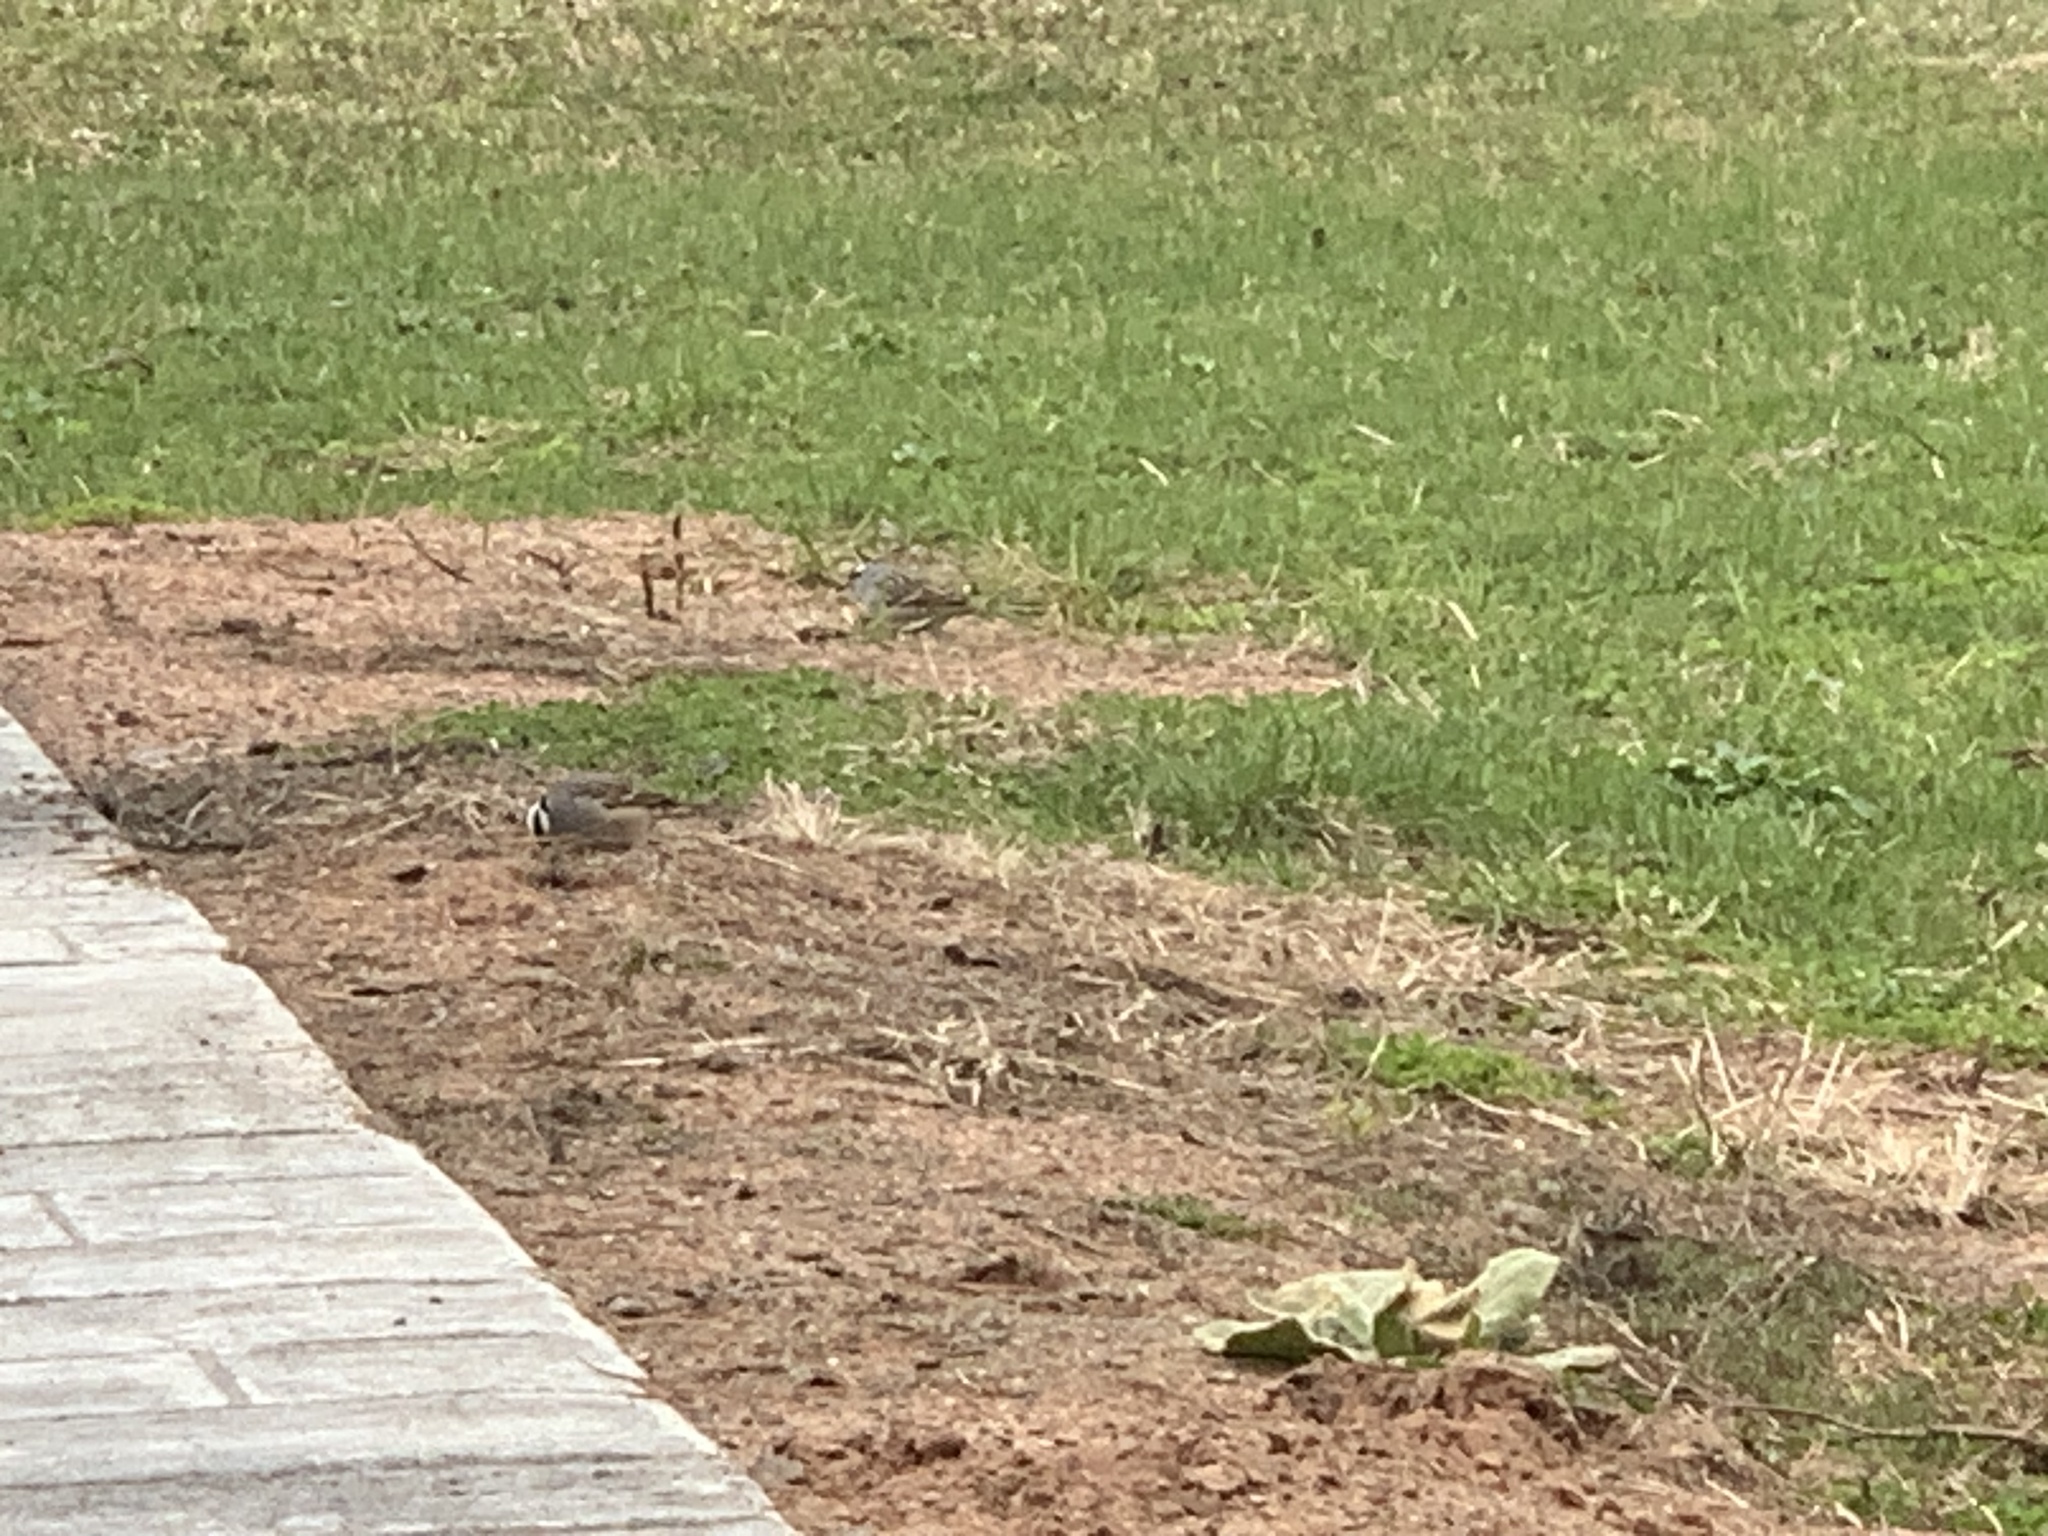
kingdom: Animalia
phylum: Chordata
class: Aves
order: Passeriformes
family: Passerellidae
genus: Zonotrichia
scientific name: Zonotrichia leucophrys
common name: White-crowned sparrow
